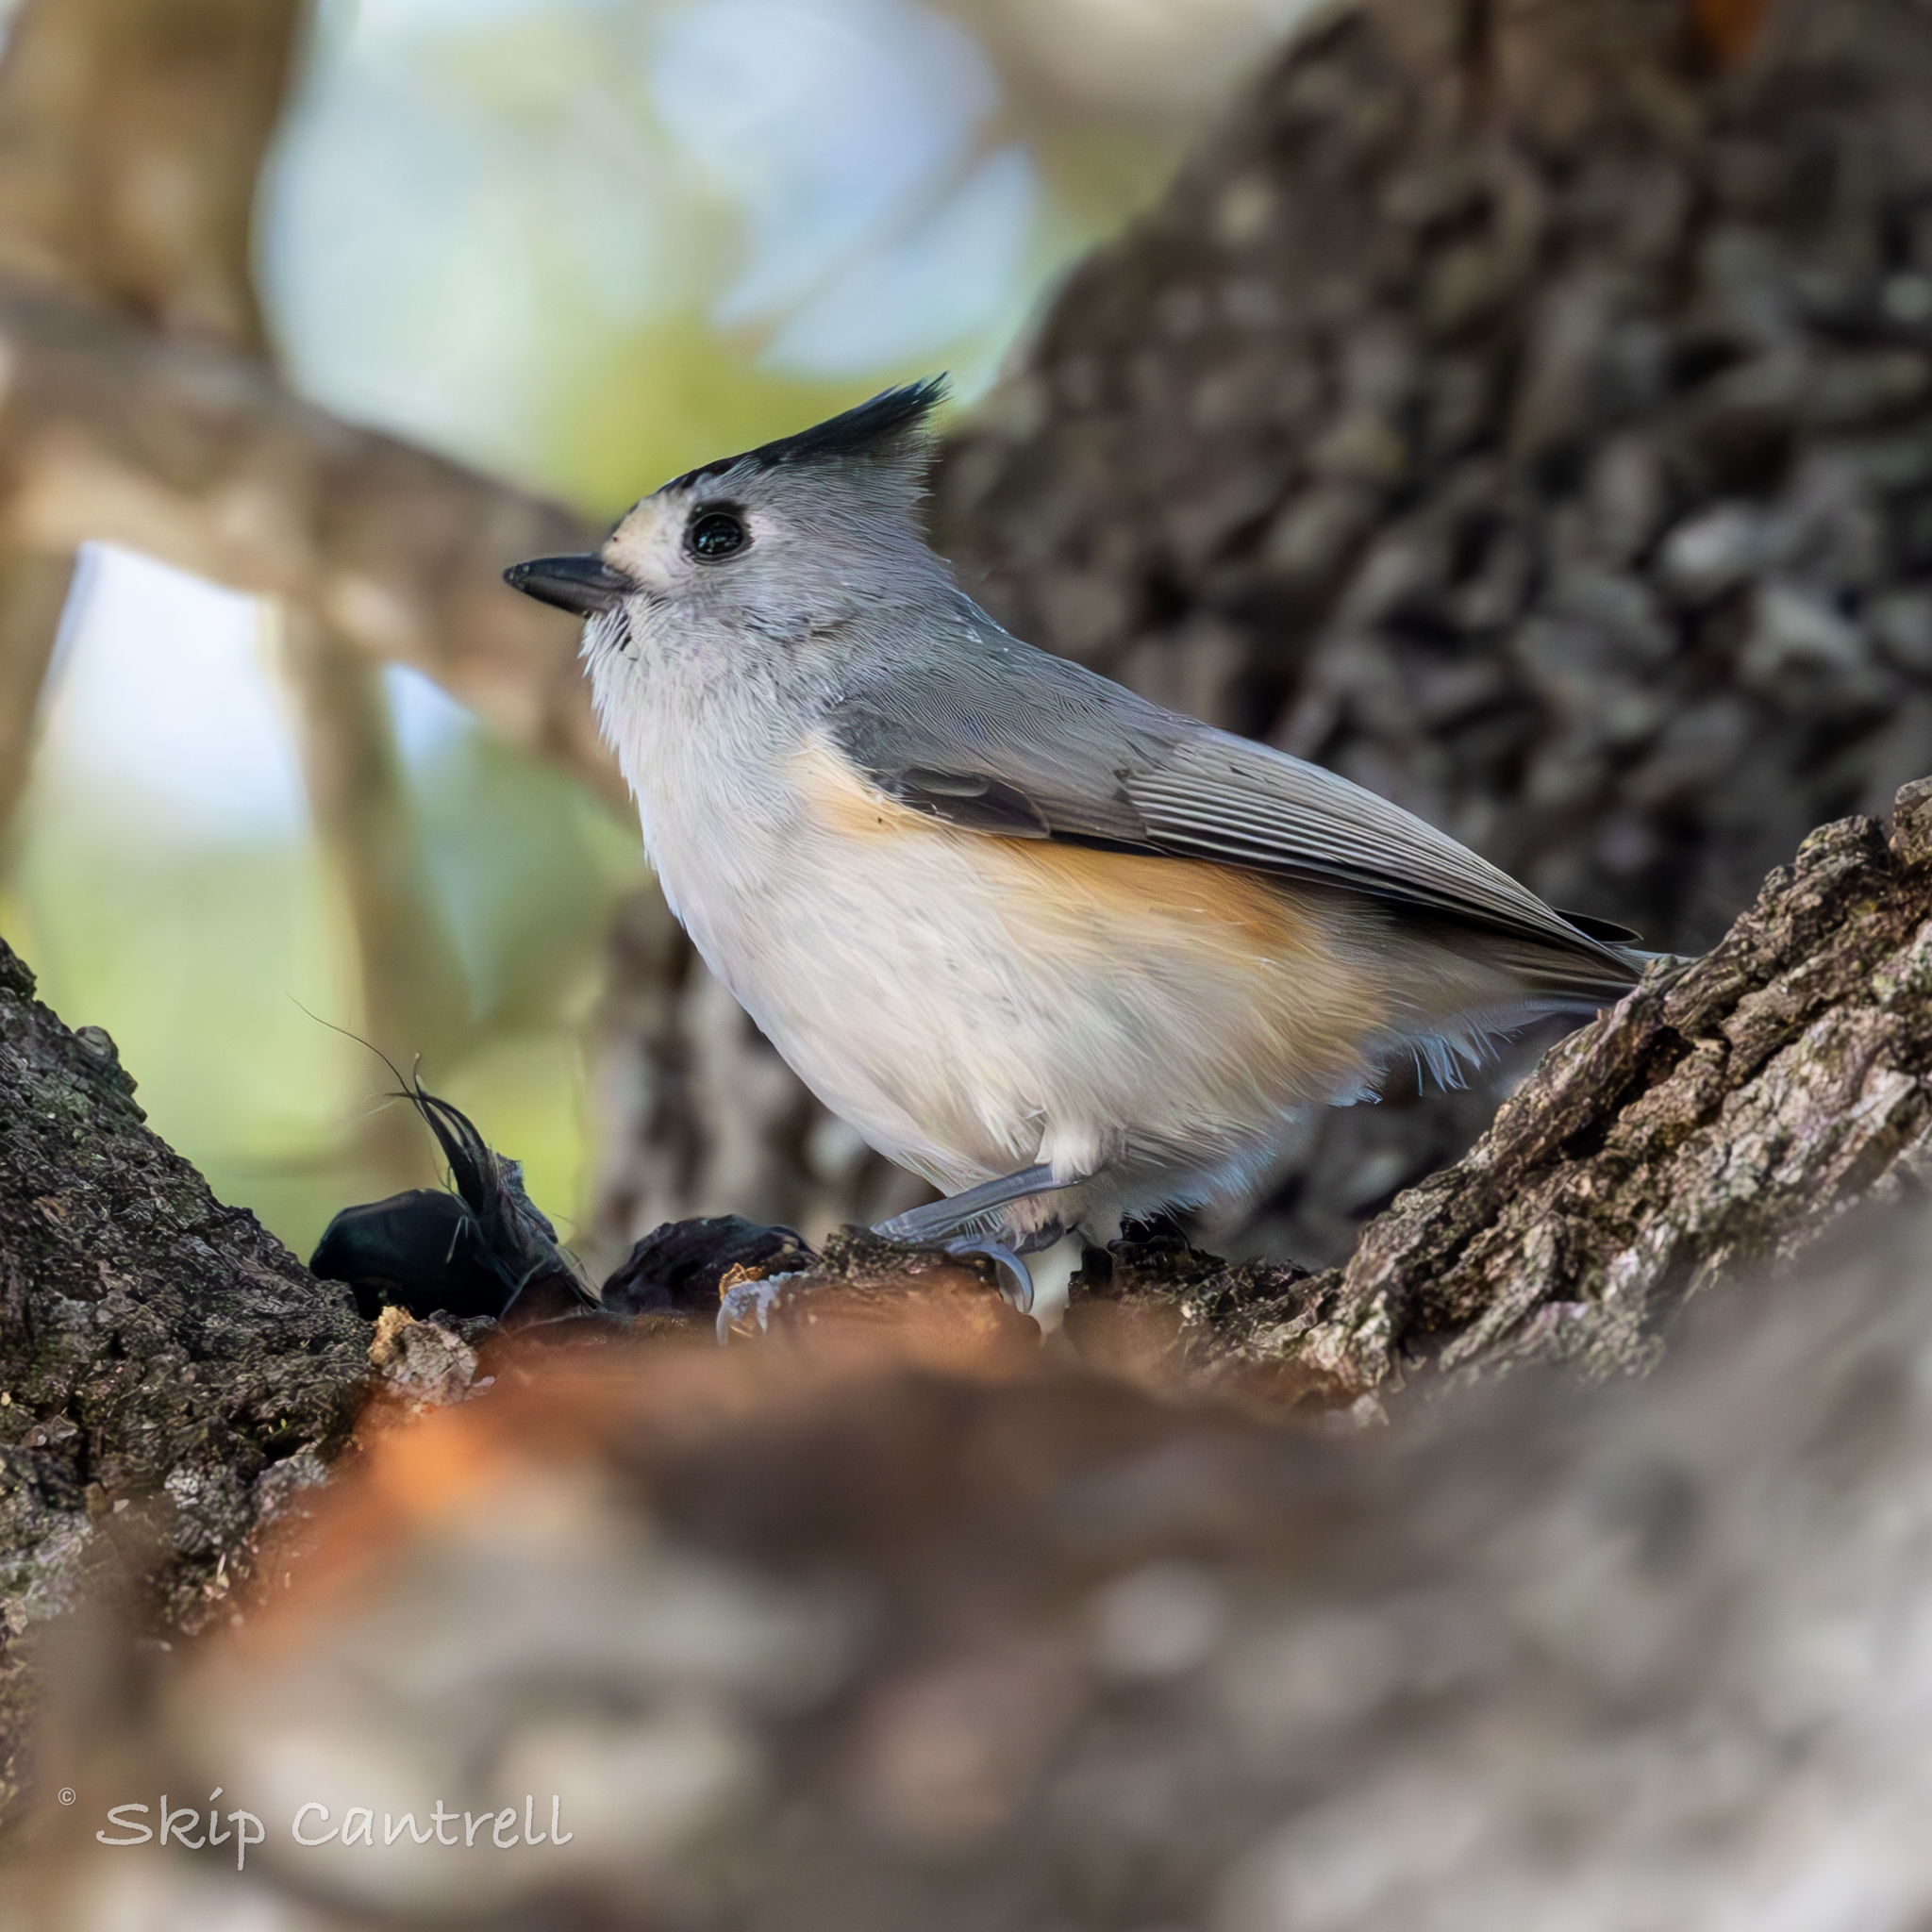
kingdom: Animalia
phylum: Chordata
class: Aves
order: Passeriformes
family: Paridae
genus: Baeolophus
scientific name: Baeolophus atricristatus
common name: Black-crested titmouse
